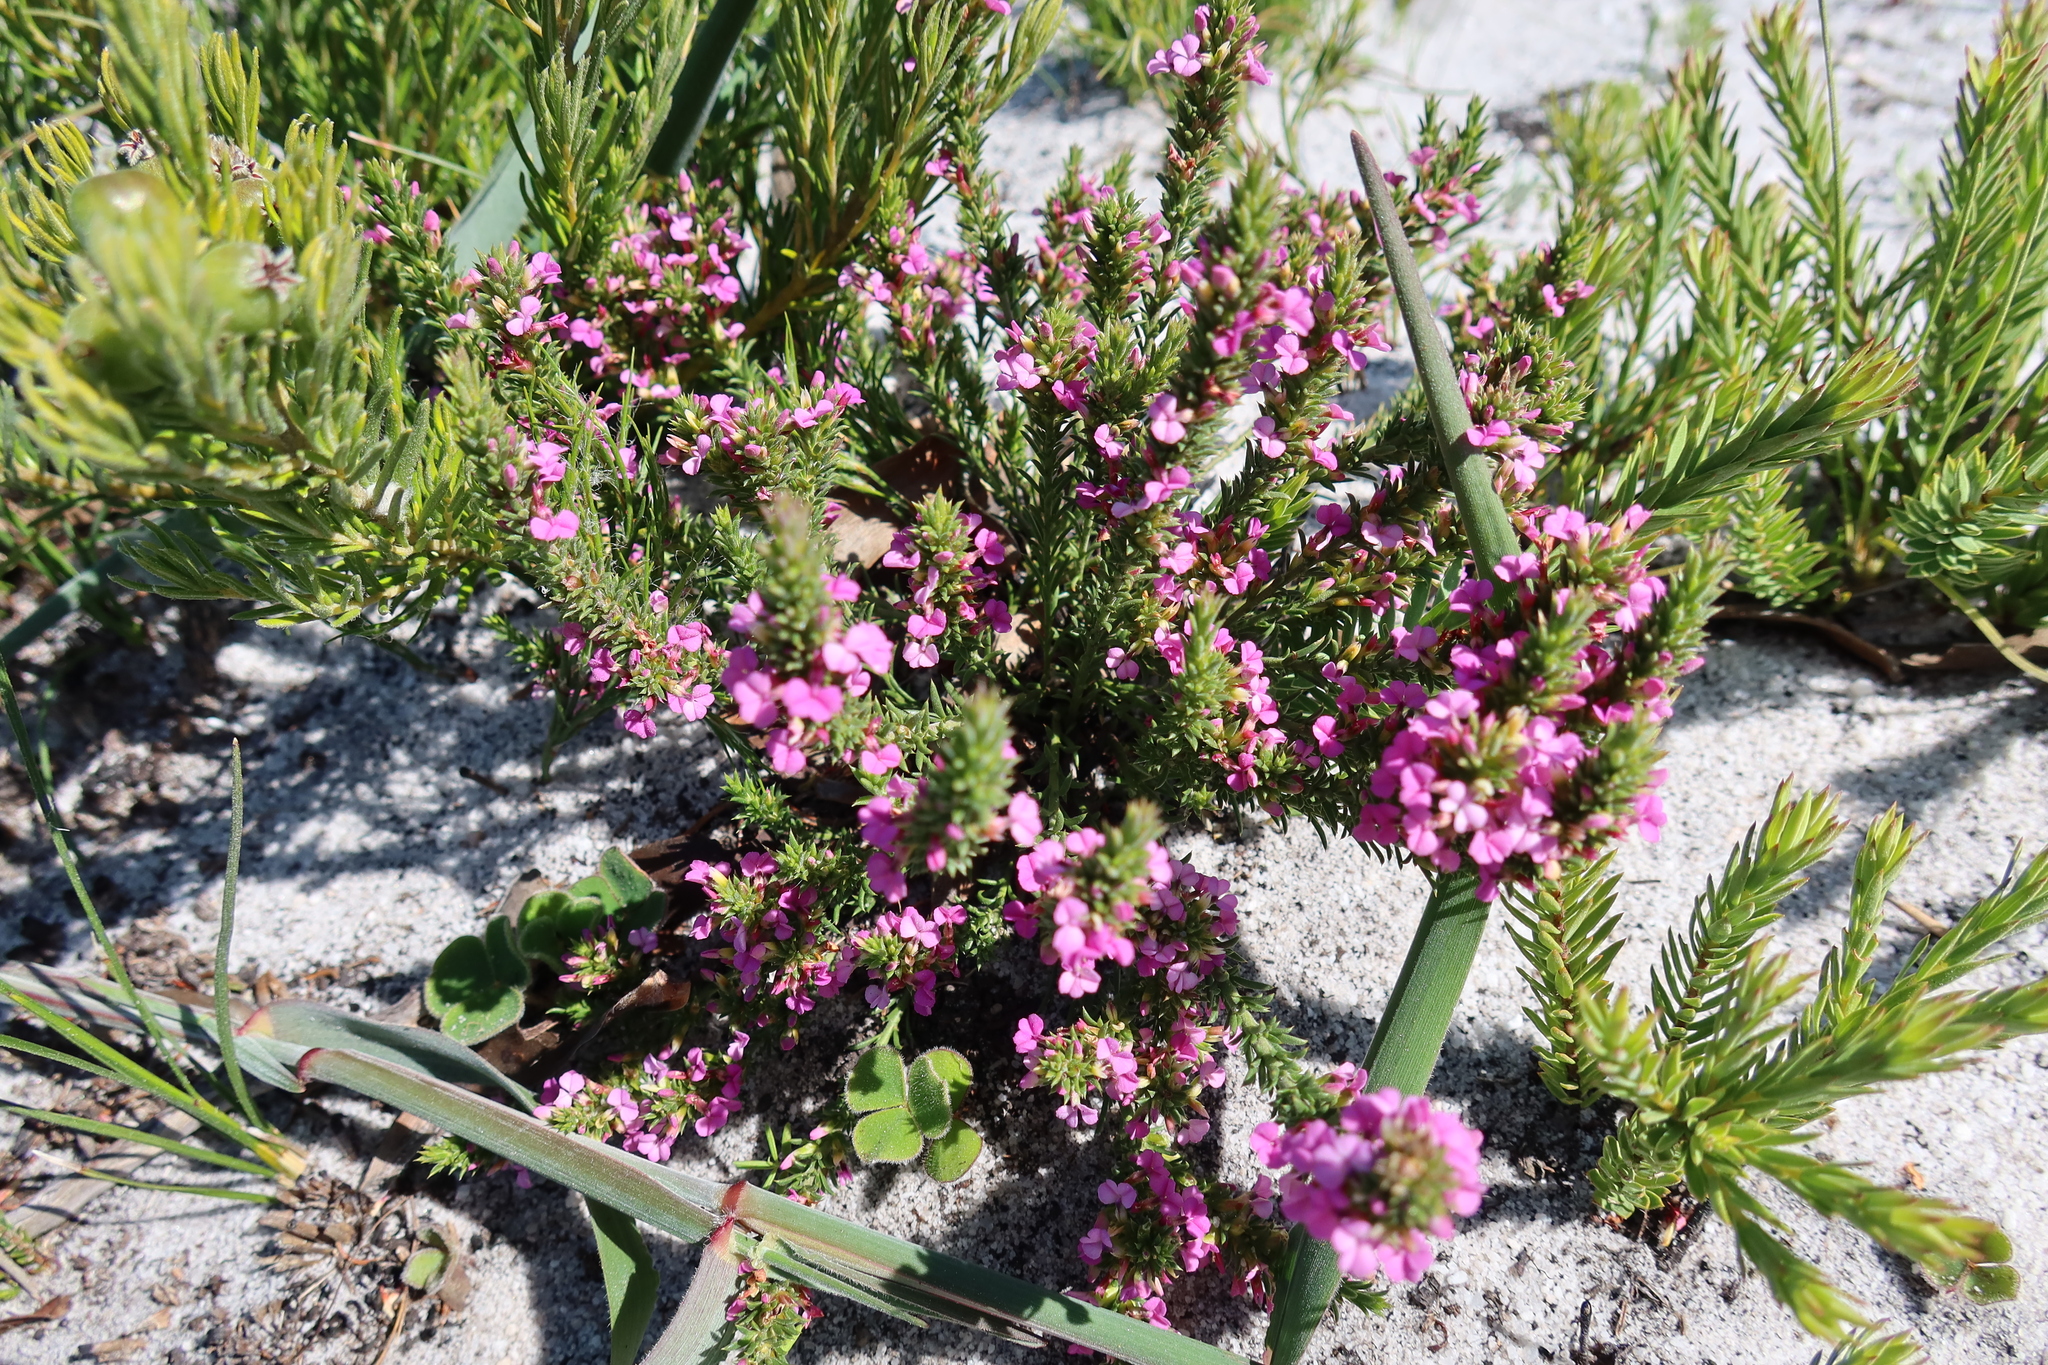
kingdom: Plantae
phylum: Tracheophyta
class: Magnoliopsida
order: Fabales
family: Polygalaceae
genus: Muraltia
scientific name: Muraltia demissa
